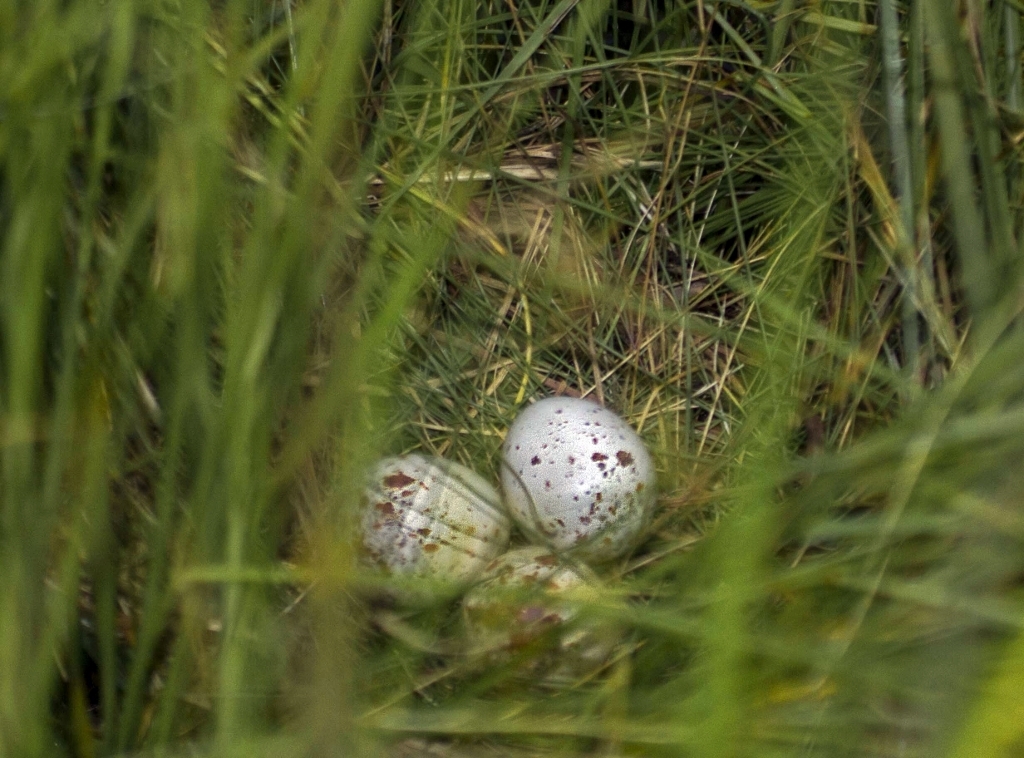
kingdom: Animalia
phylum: Chordata
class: Aves
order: Gruiformes
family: Rallidae
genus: Crex
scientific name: Crex egregia
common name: African crake
